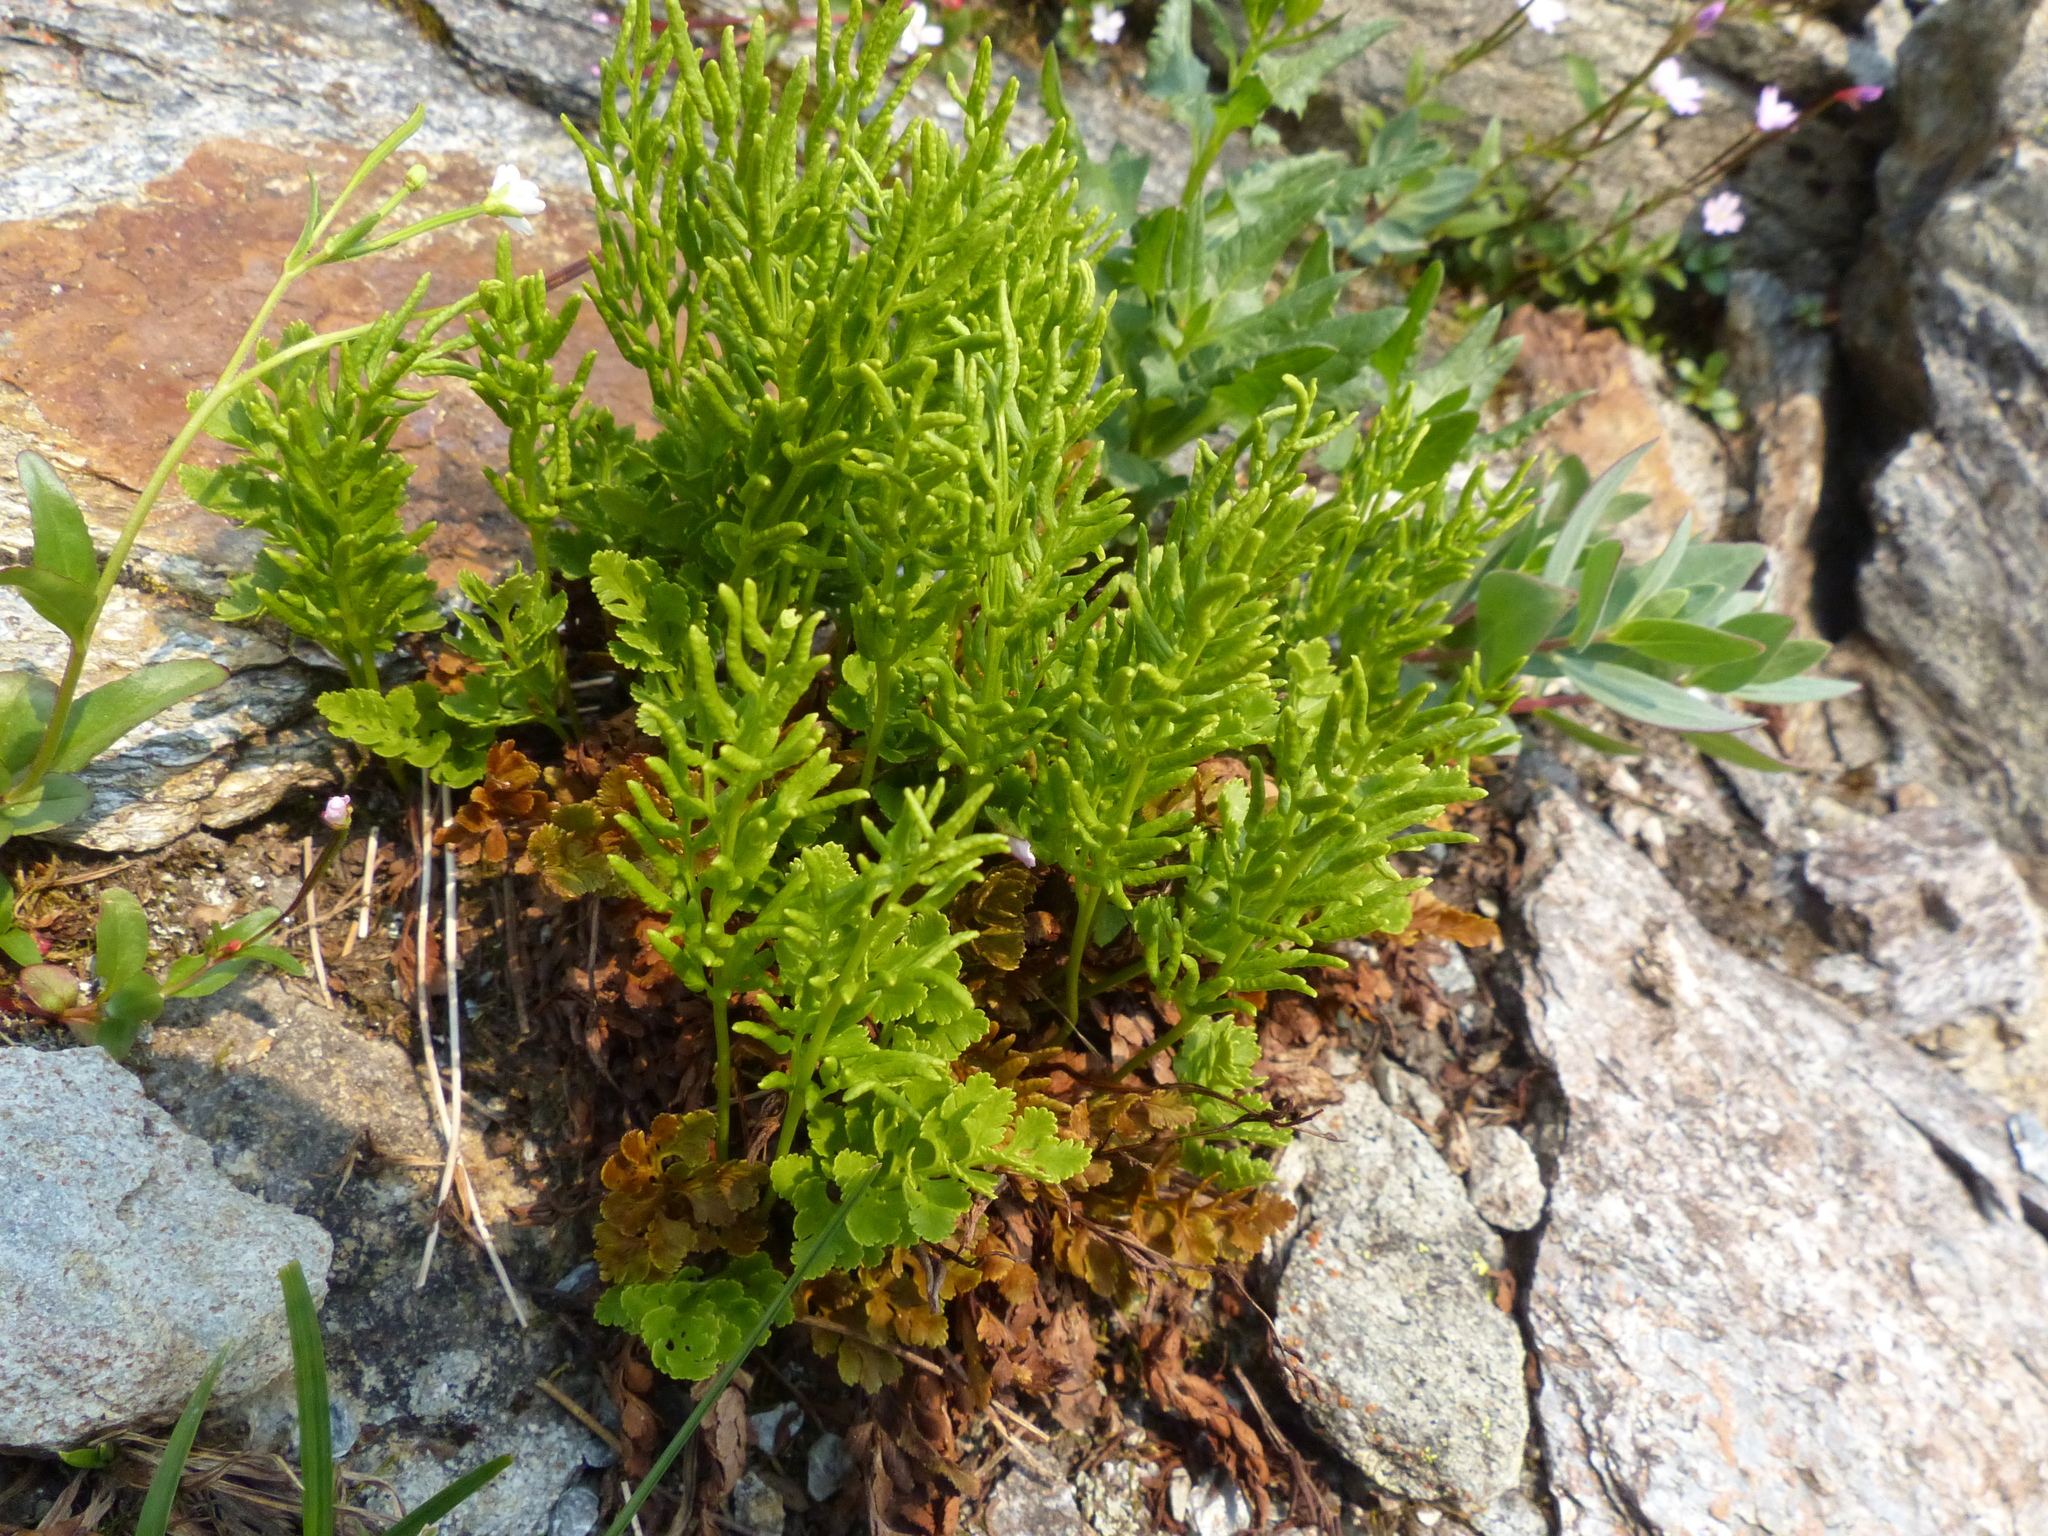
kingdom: Plantae
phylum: Tracheophyta
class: Polypodiopsida
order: Polypodiales
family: Pteridaceae
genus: Cryptogramma
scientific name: Cryptogramma acrostichoides
